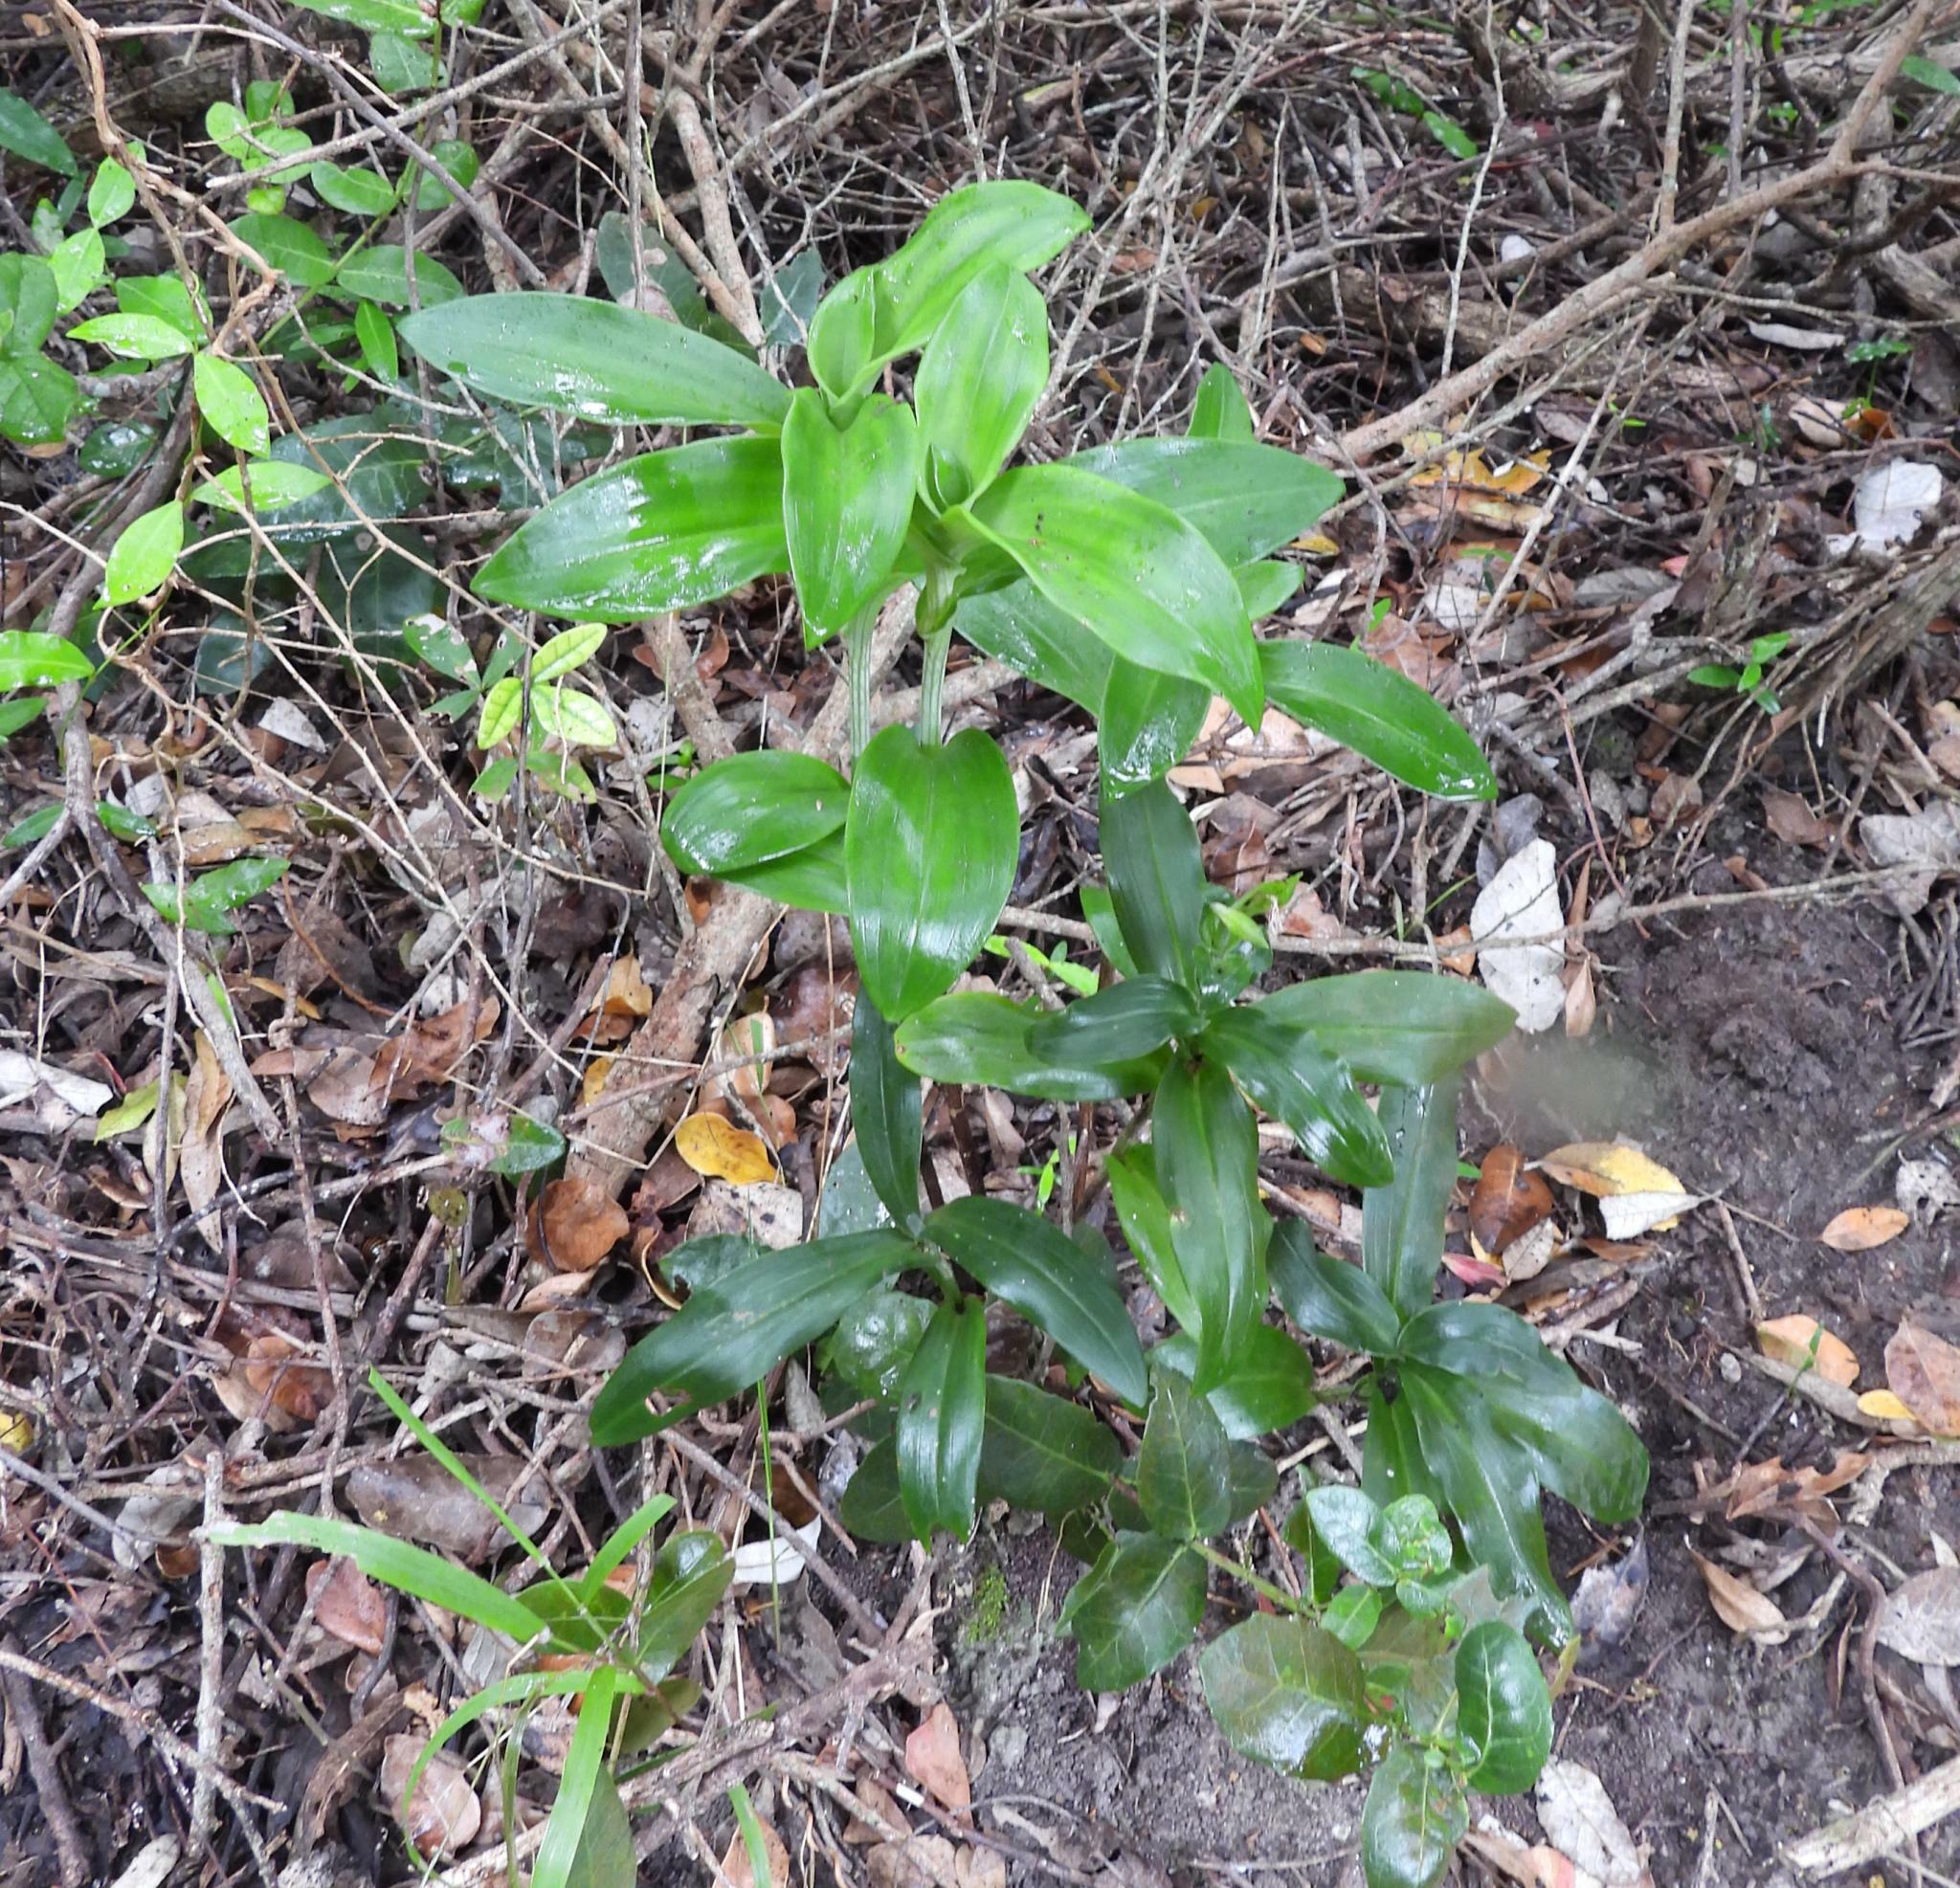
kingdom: Plantae
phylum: Tracheophyta
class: Liliopsida
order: Asparagales
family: Orchidaceae
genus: Bonatea
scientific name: Bonatea speciosa
